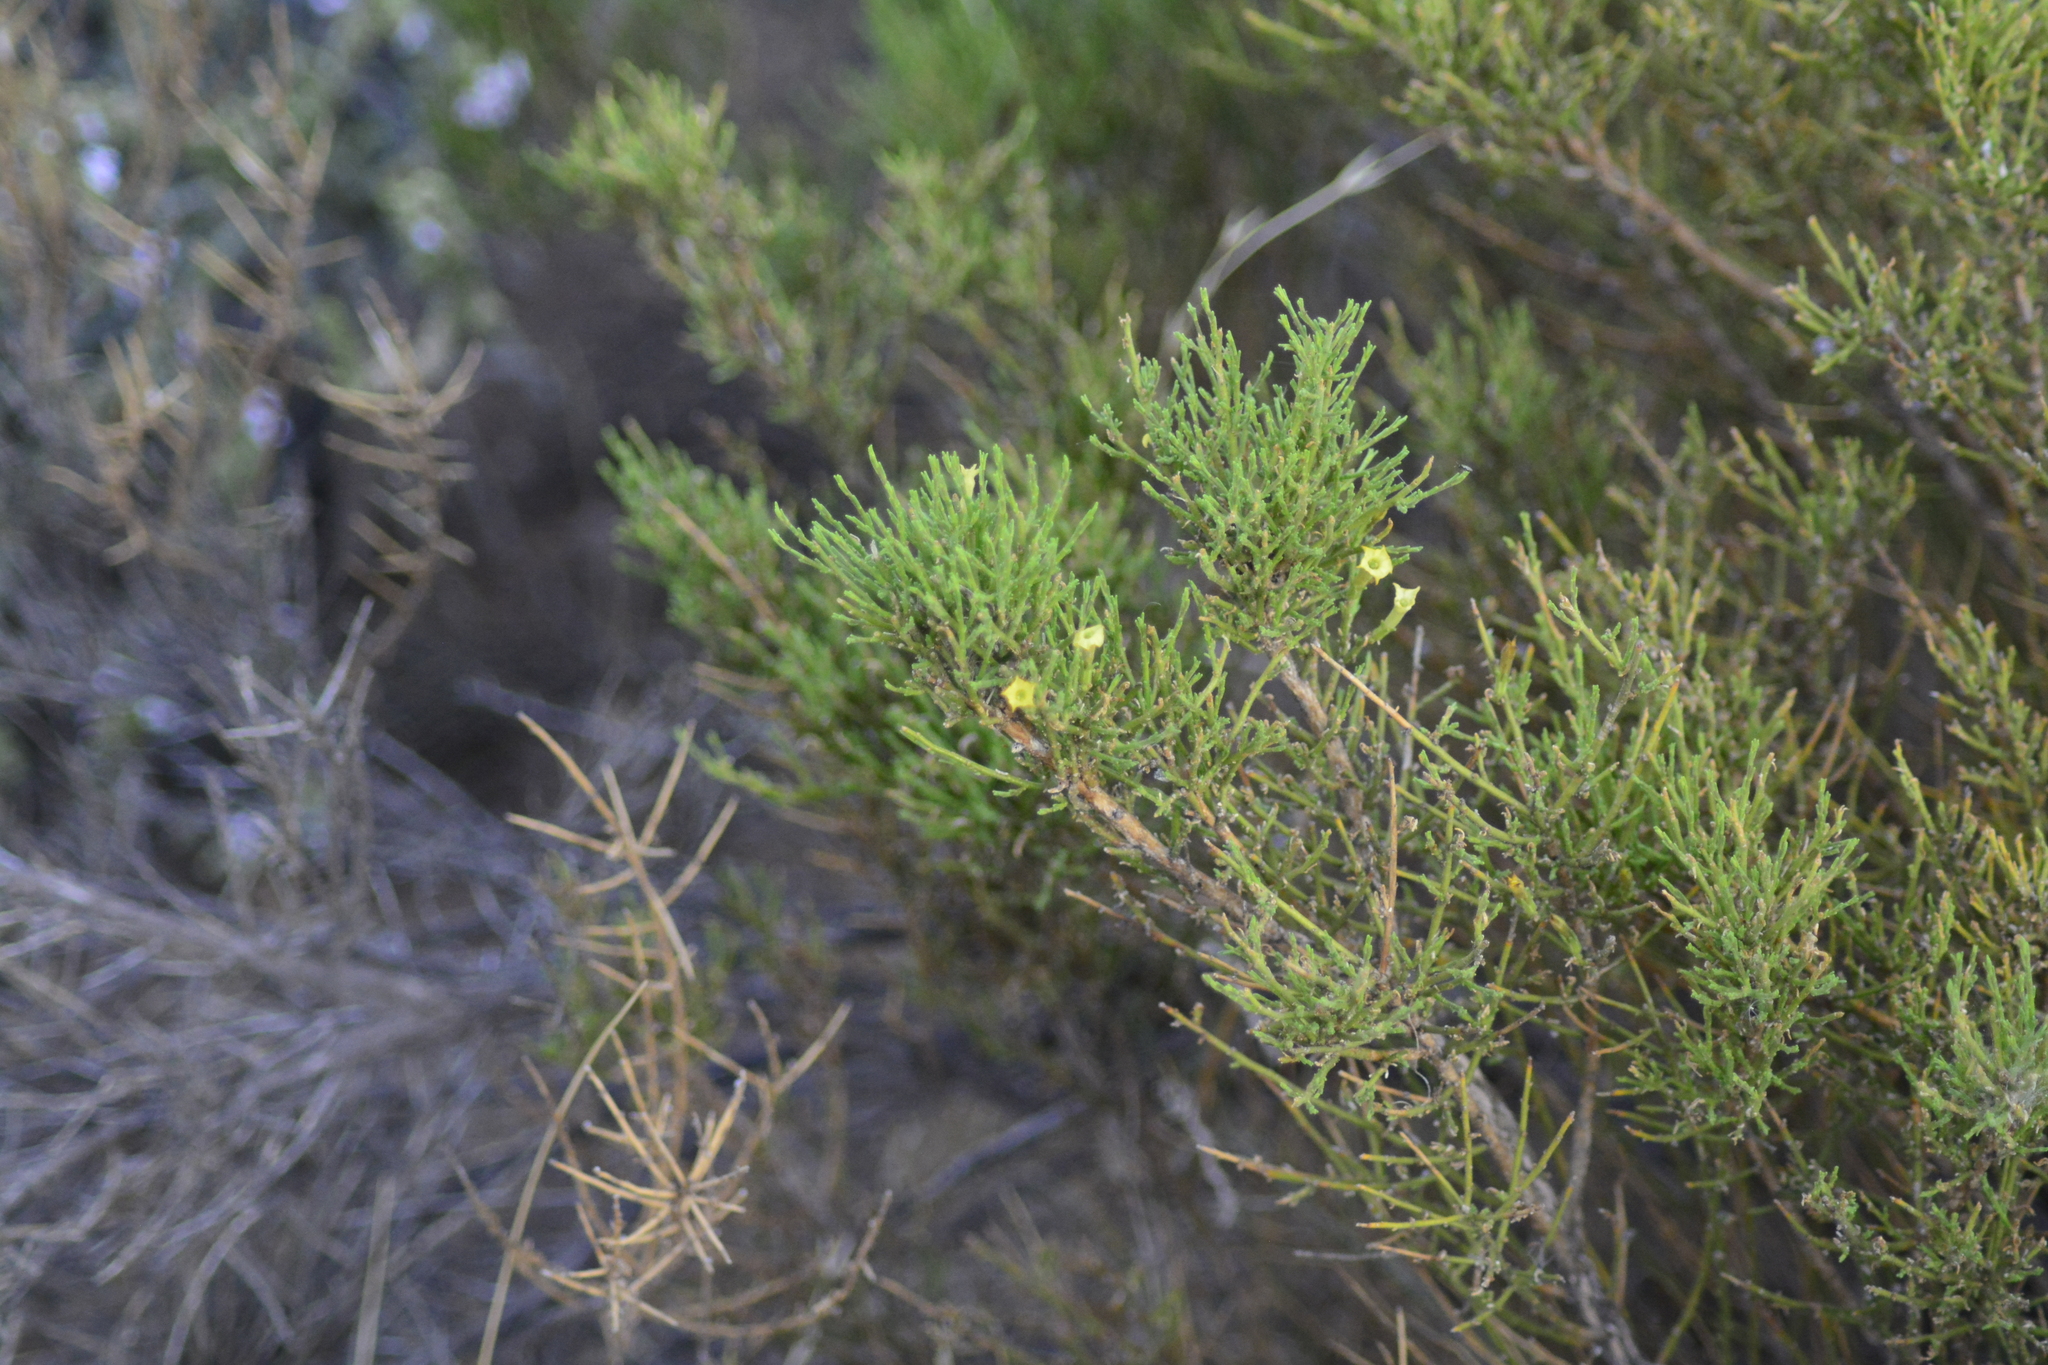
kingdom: Plantae
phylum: Tracheophyta
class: Magnoliopsida
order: Solanales
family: Solanaceae
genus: Fabiana
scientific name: Fabiana patagonica
